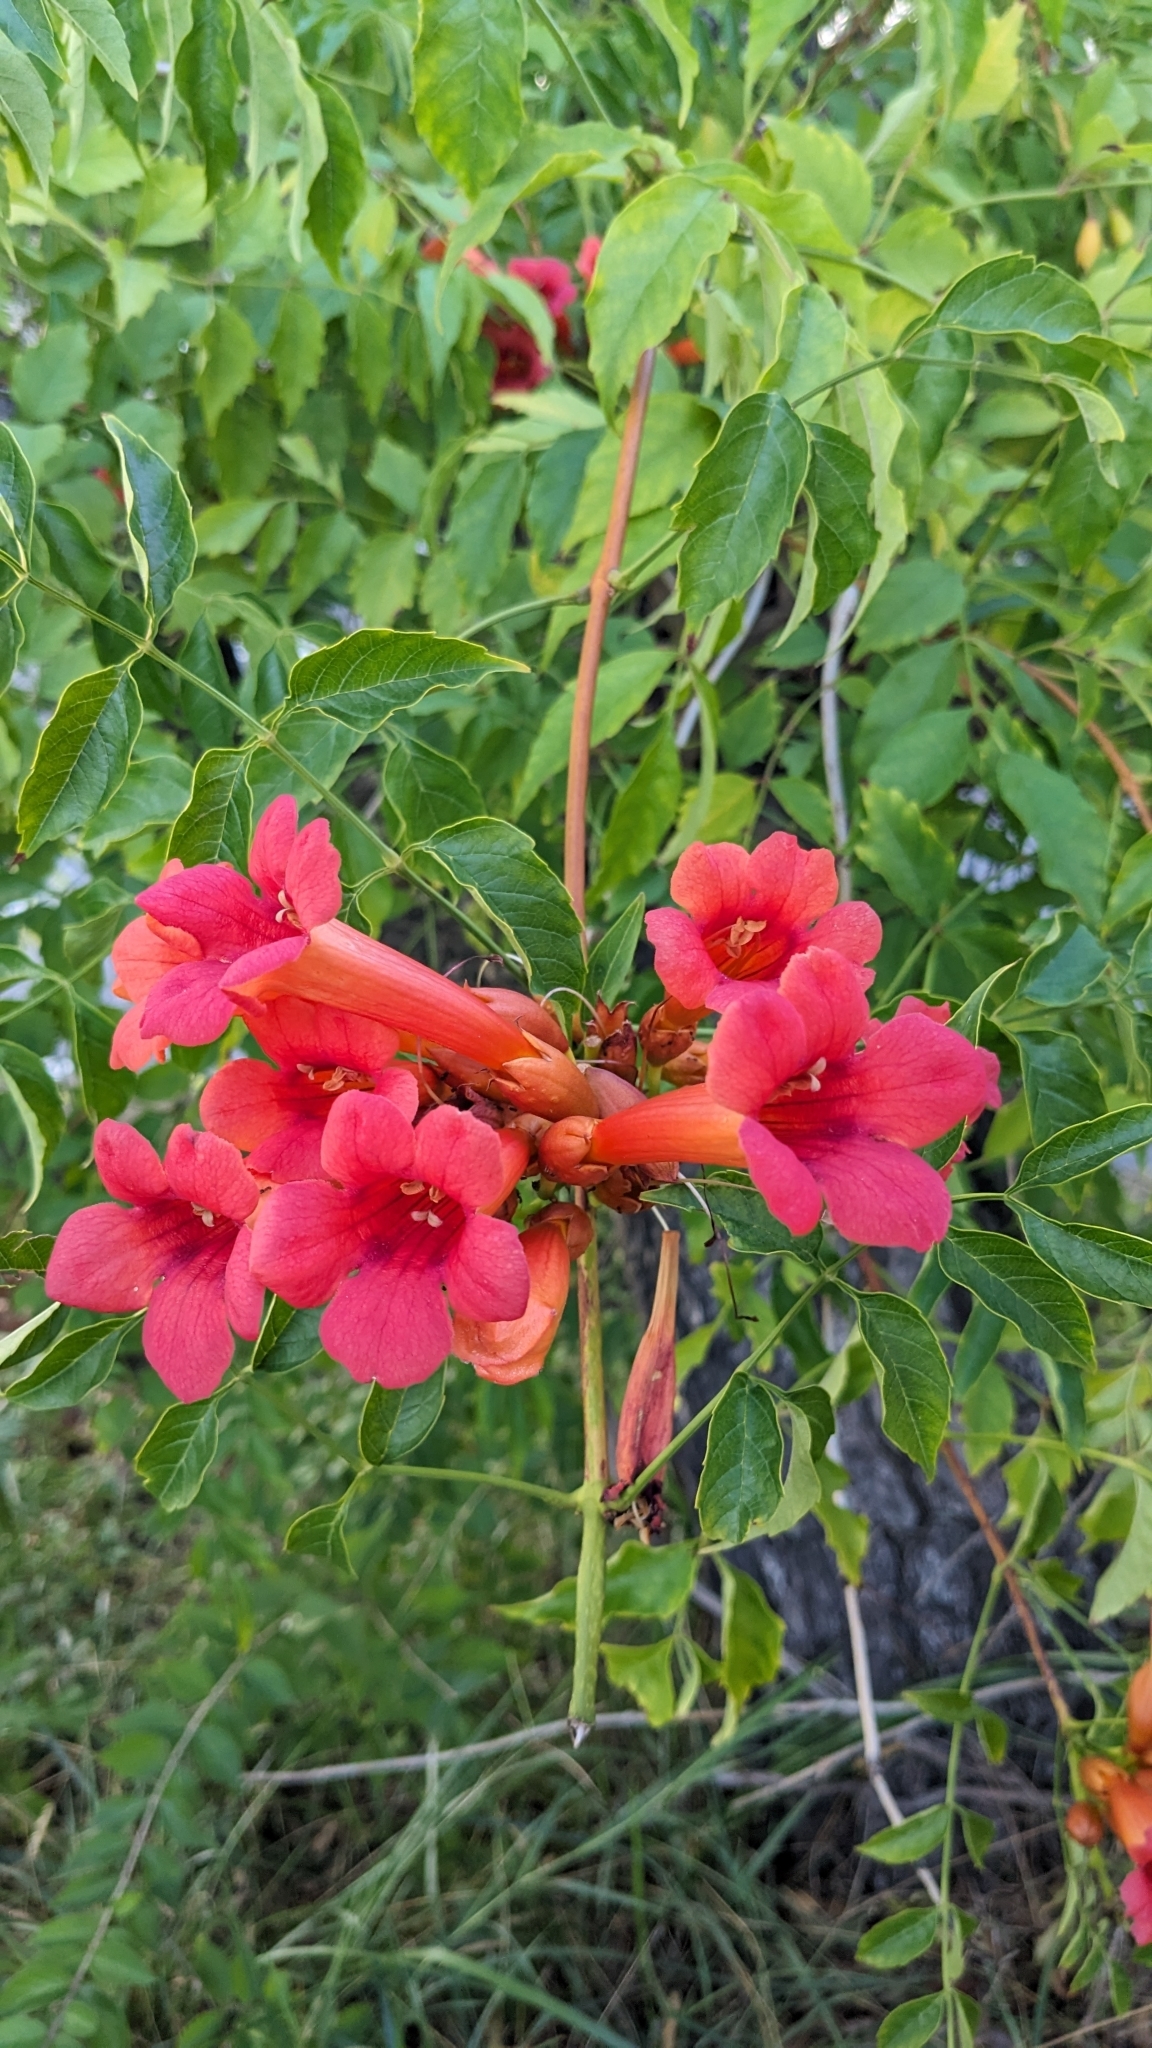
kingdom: Plantae
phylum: Tracheophyta
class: Magnoliopsida
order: Lamiales
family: Bignoniaceae
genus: Campsis
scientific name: Campsis radicans
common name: Trumpet-creeper
